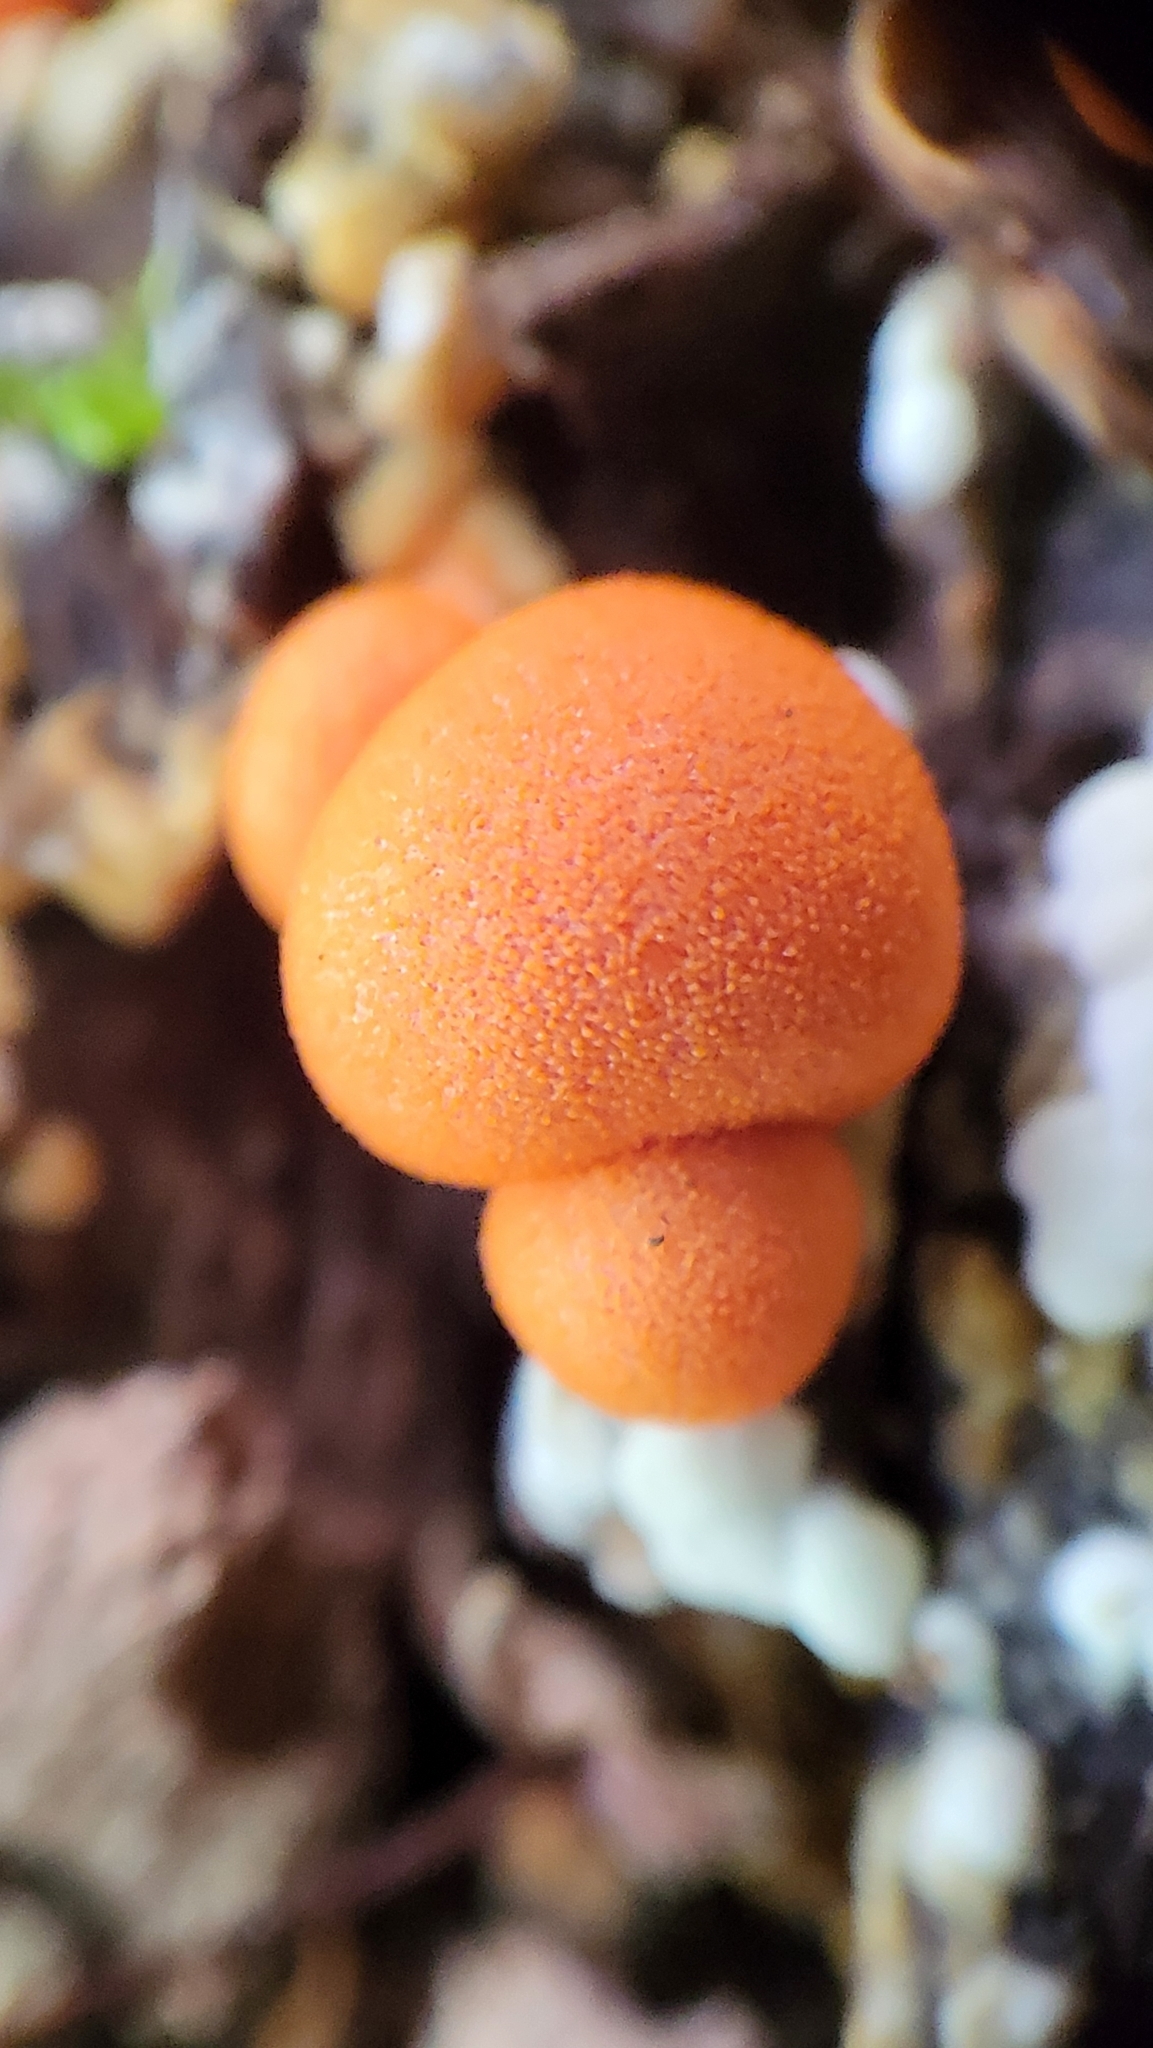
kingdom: Protozoa
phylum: Mycetozoa
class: Myxomycetes
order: Cribrariales
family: Tubiferaceae
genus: Lycogala
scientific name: Lycogala epidendrum
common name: Wolf's milk
